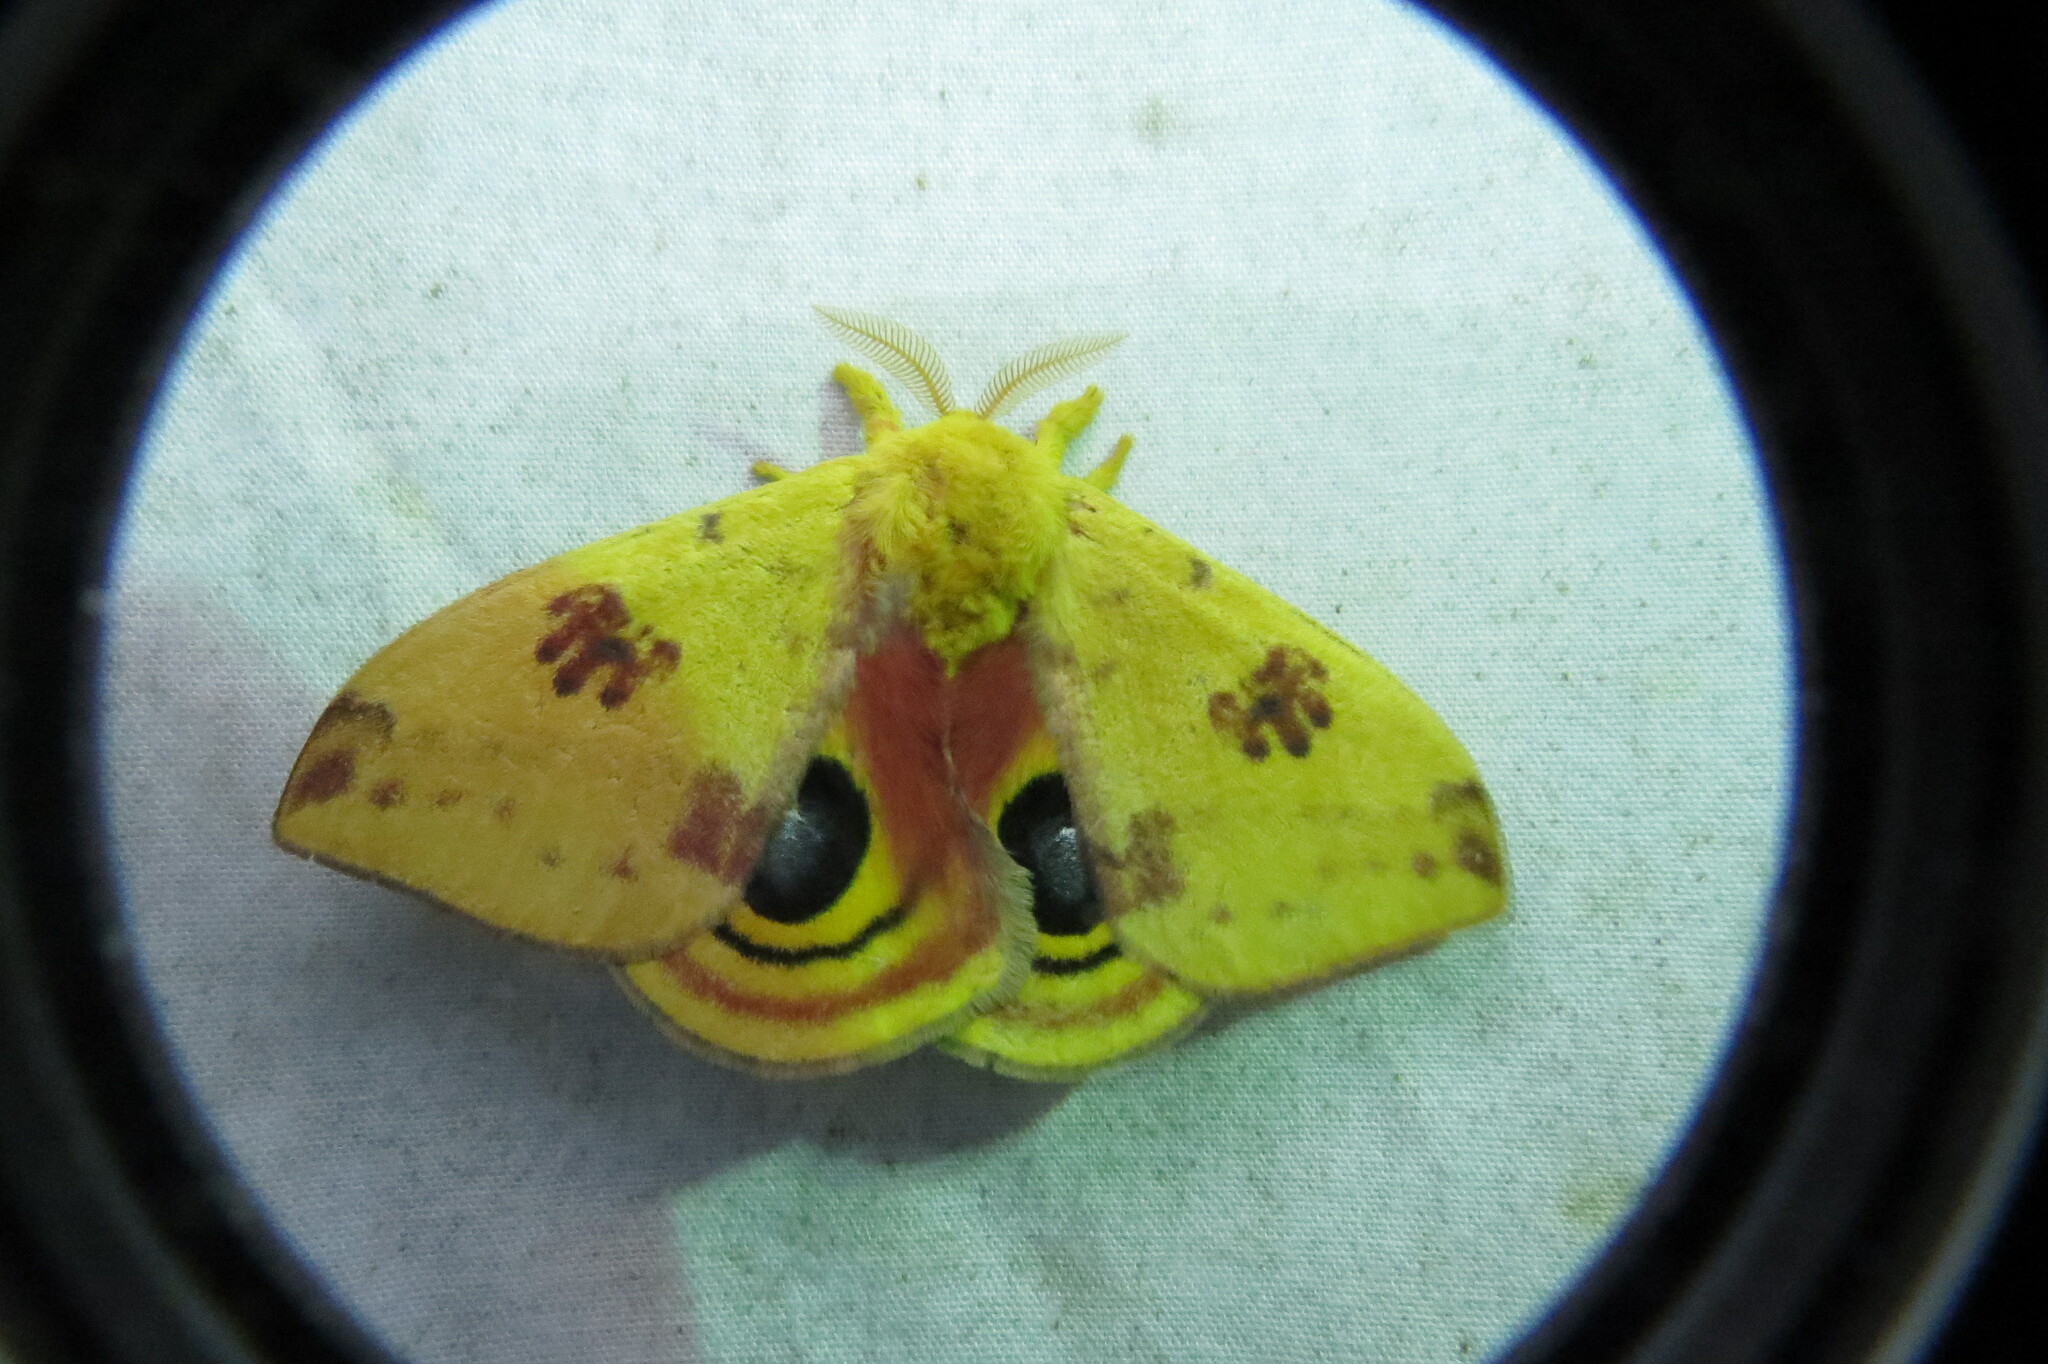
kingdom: Animalia
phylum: Arthropoda
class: Insecta
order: Lepidoptera
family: Saturniidae
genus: Automeris
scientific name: Automeris io
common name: Io moth
